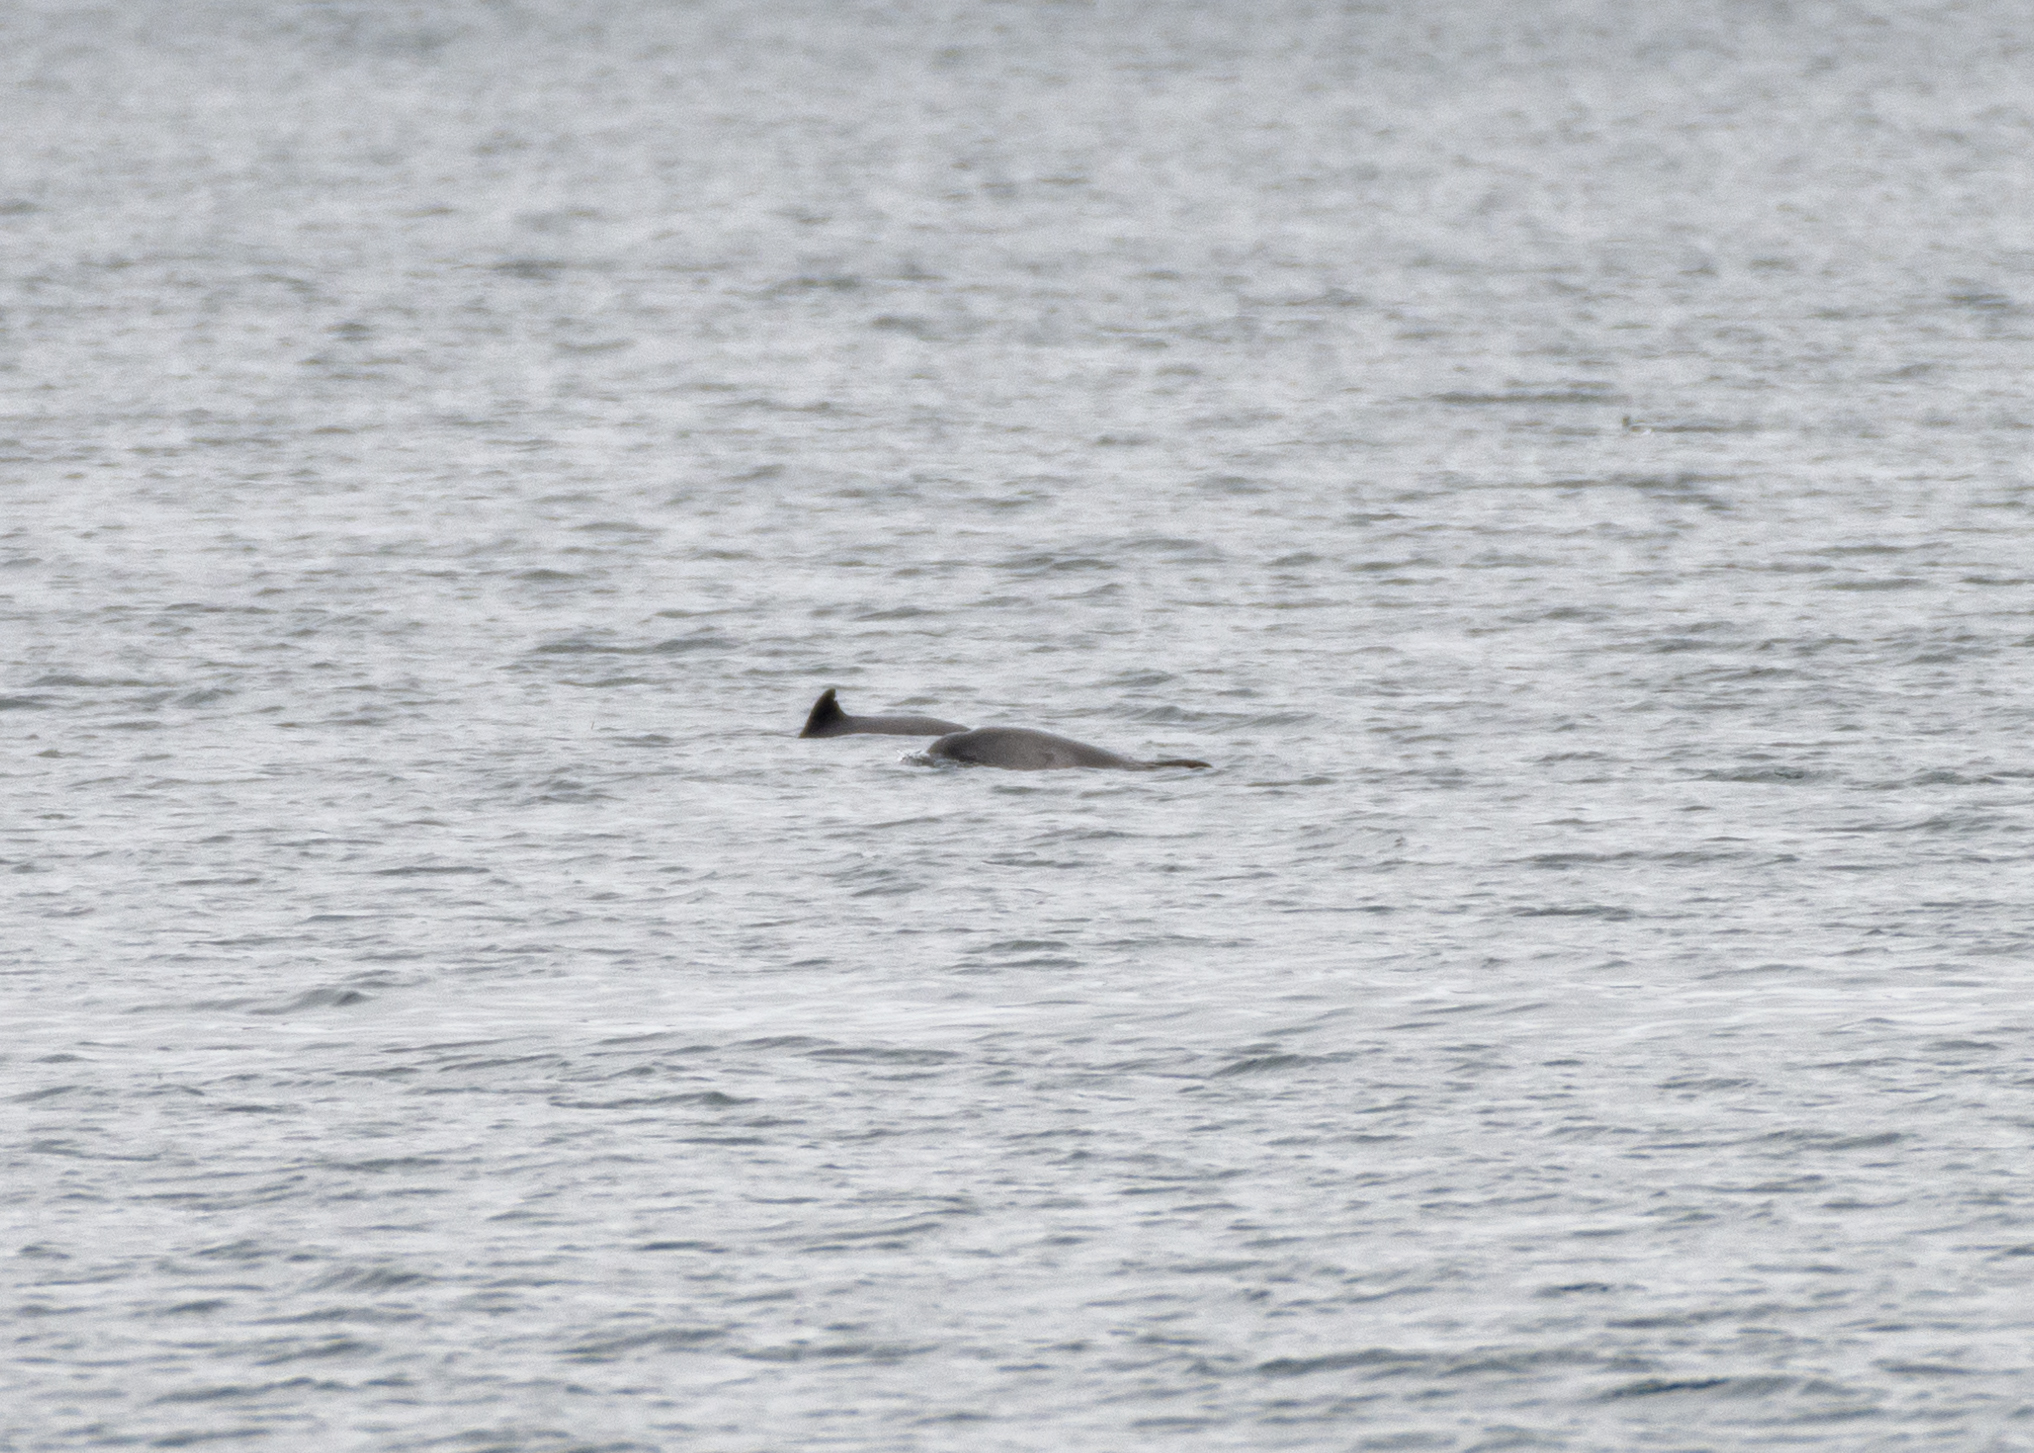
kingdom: Animalia
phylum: Chordata
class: Mammalia
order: Cetacea
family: Delphinidae
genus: Tursiops
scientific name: Tursiops truncatus
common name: Bottlenose dolphin
